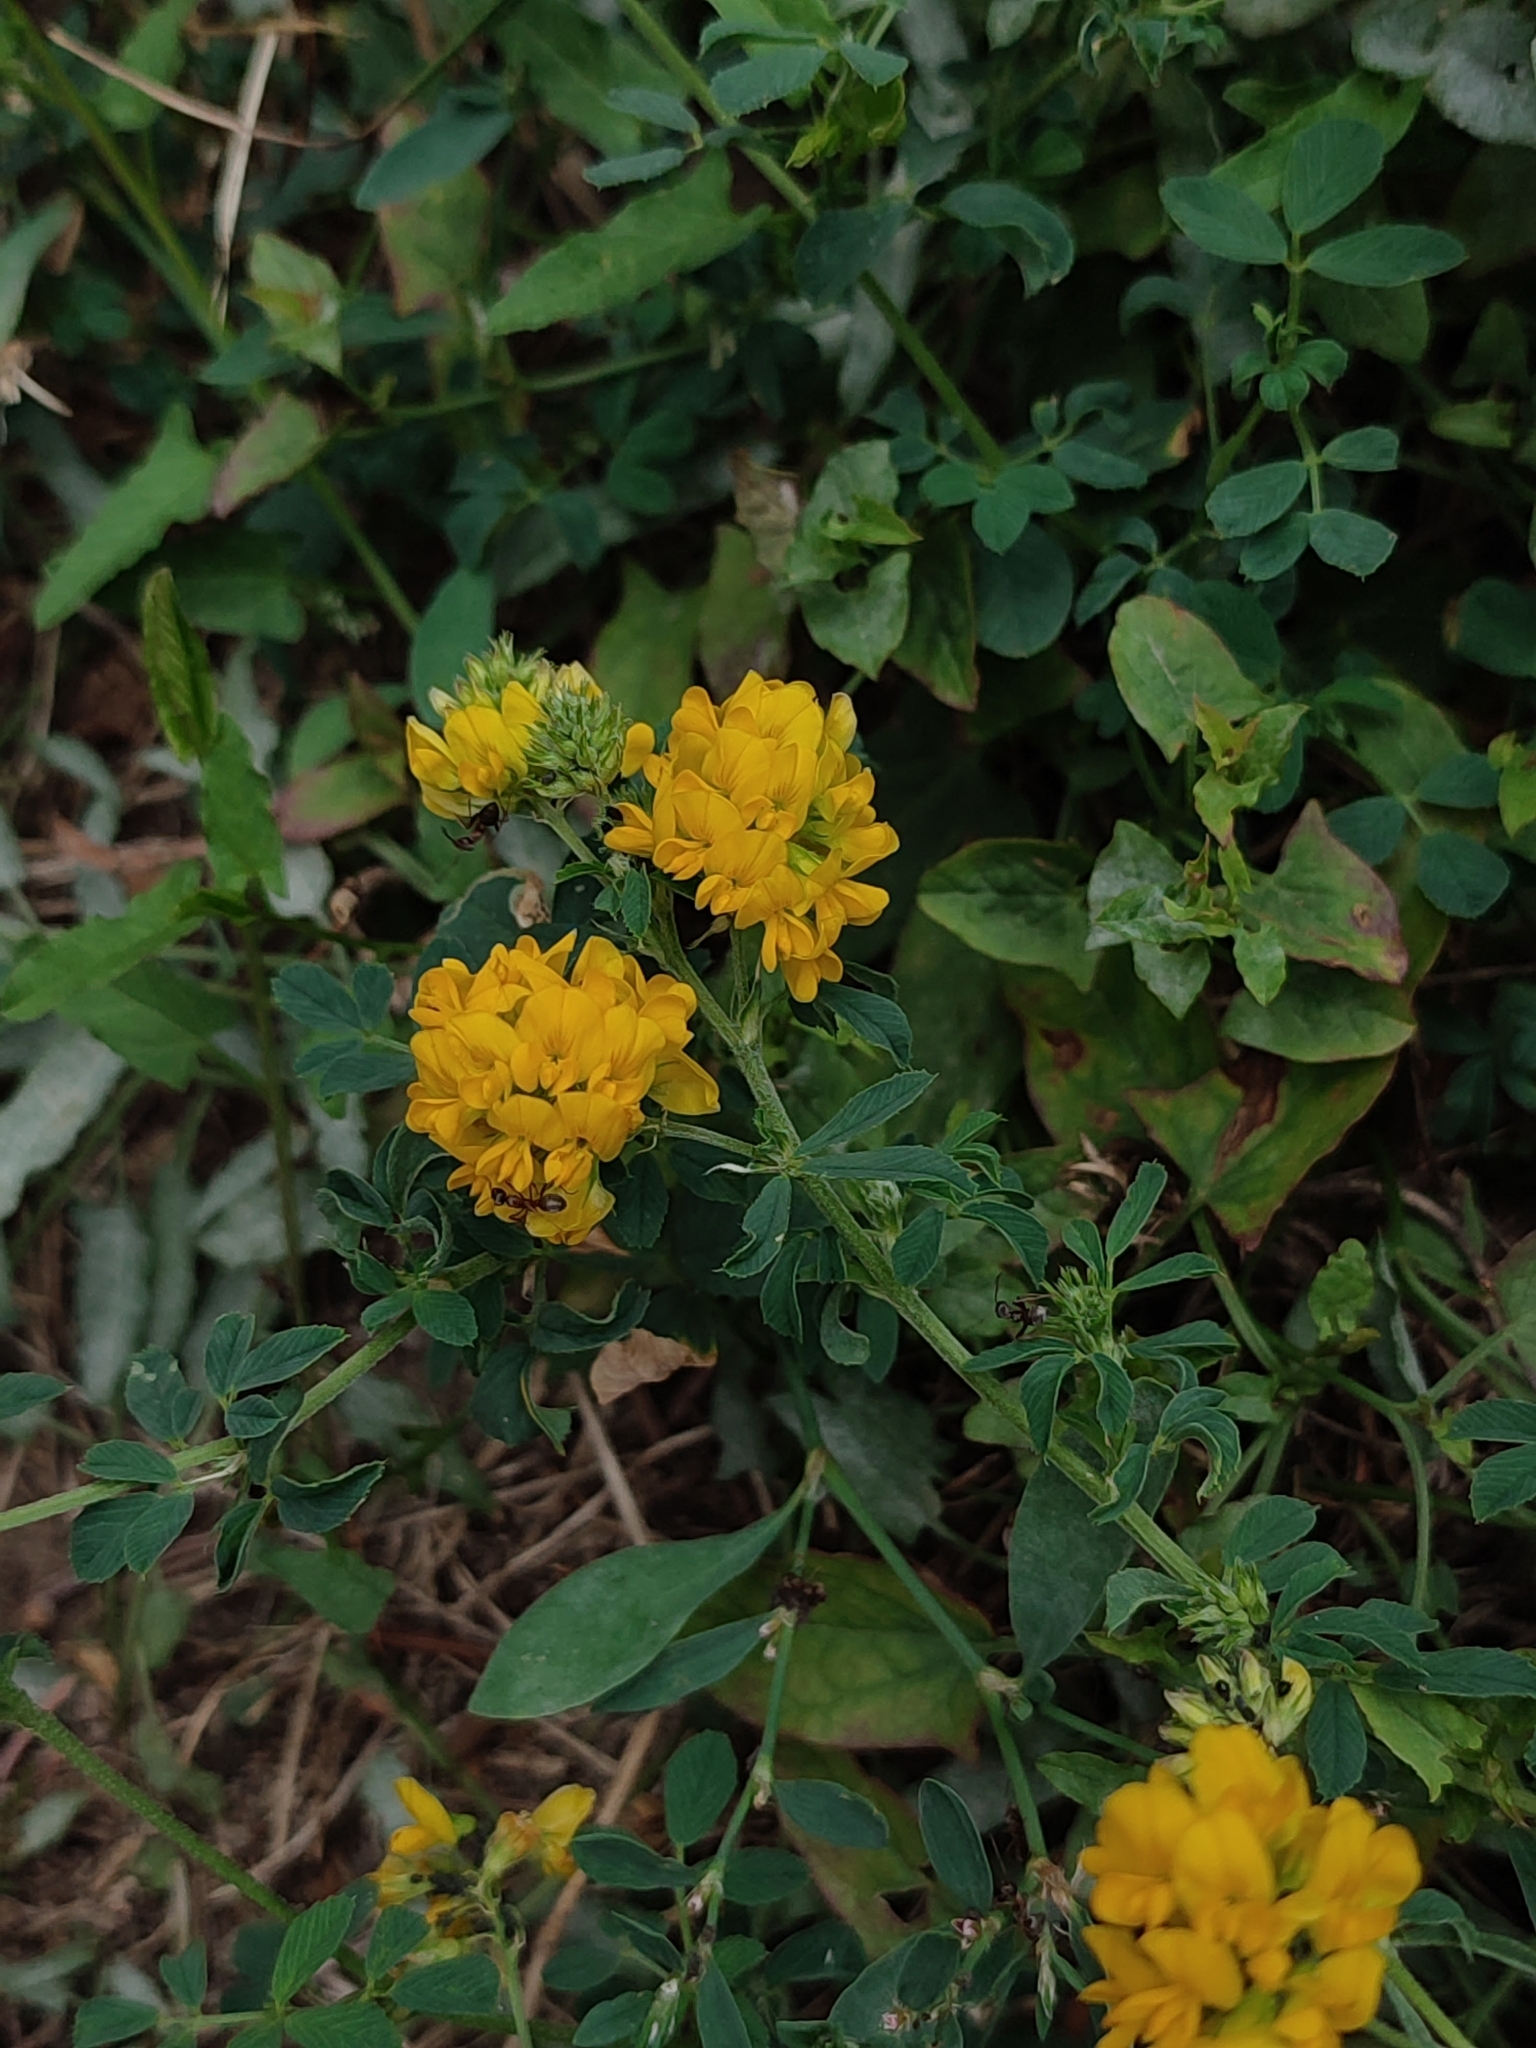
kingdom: Plantae
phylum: Tracheophyta
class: Magnoliopsida
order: Fabales
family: Fabaceae
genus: Medicago
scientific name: Medicago falcata
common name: Sickle medick
